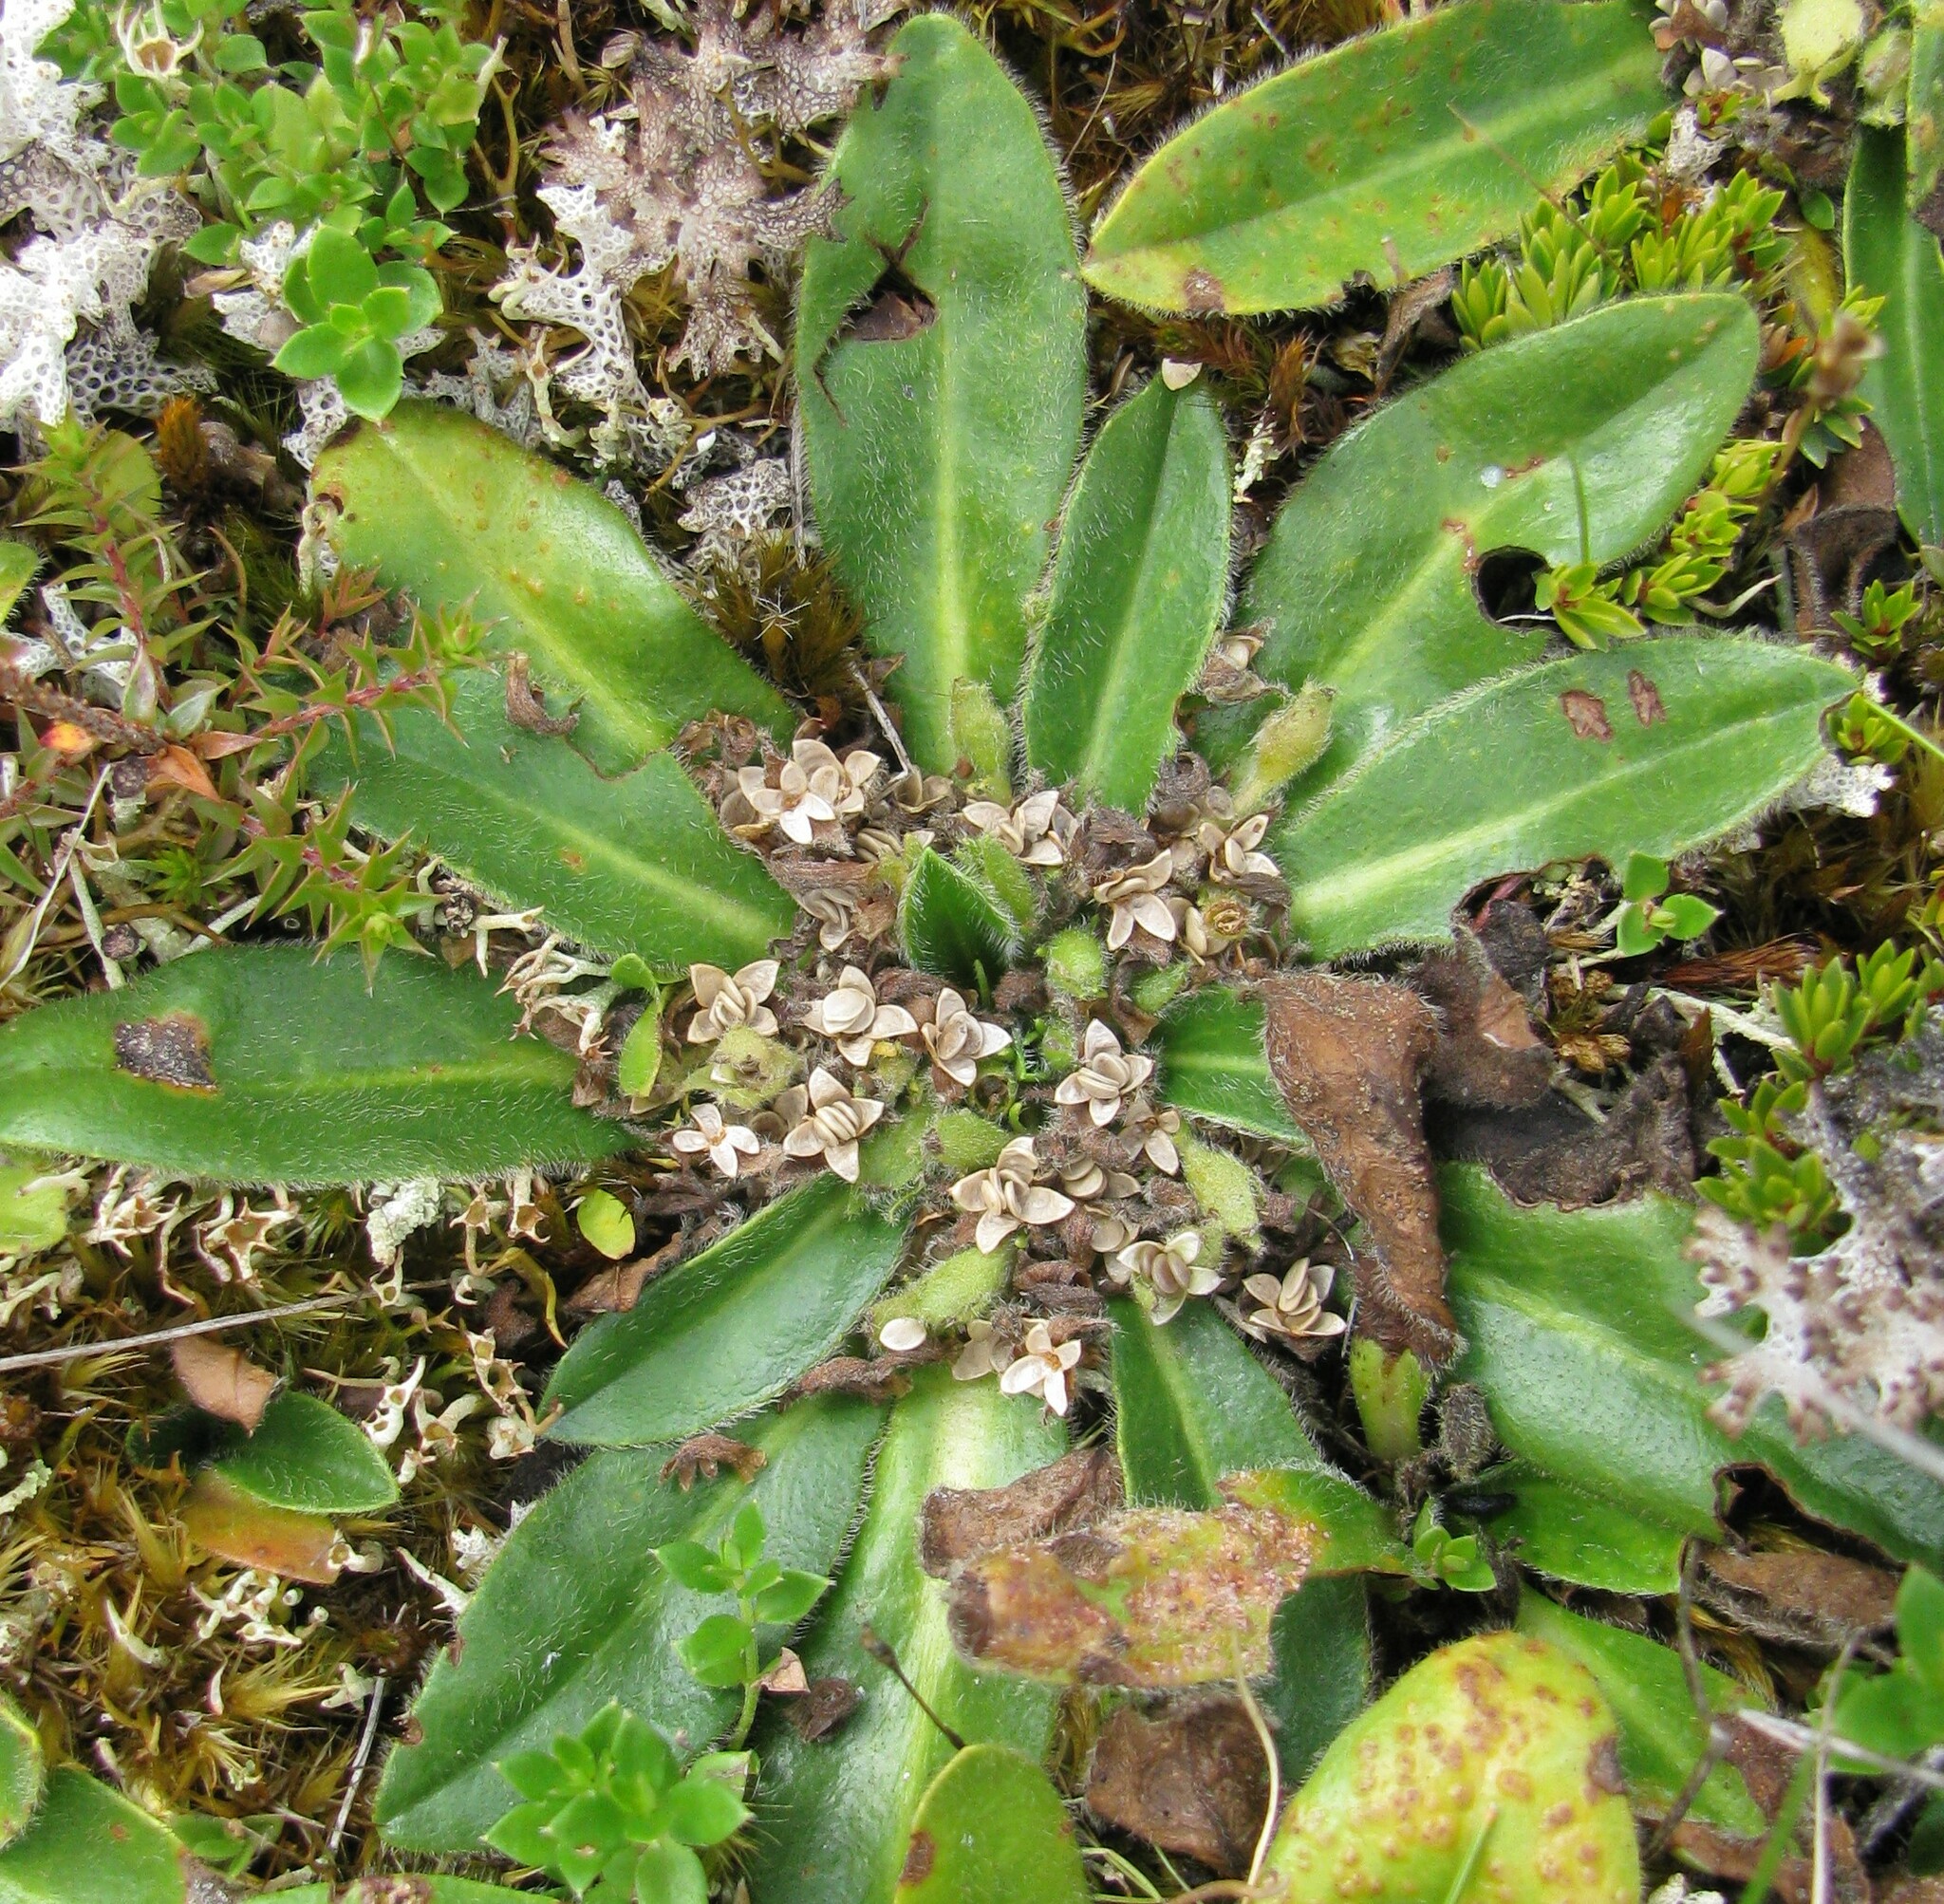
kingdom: Plantae
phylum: Tracheophyta
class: Magnoliopsida
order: Asterales
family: Goodeniaceae
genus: Goodenia
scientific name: Goodenia montana
